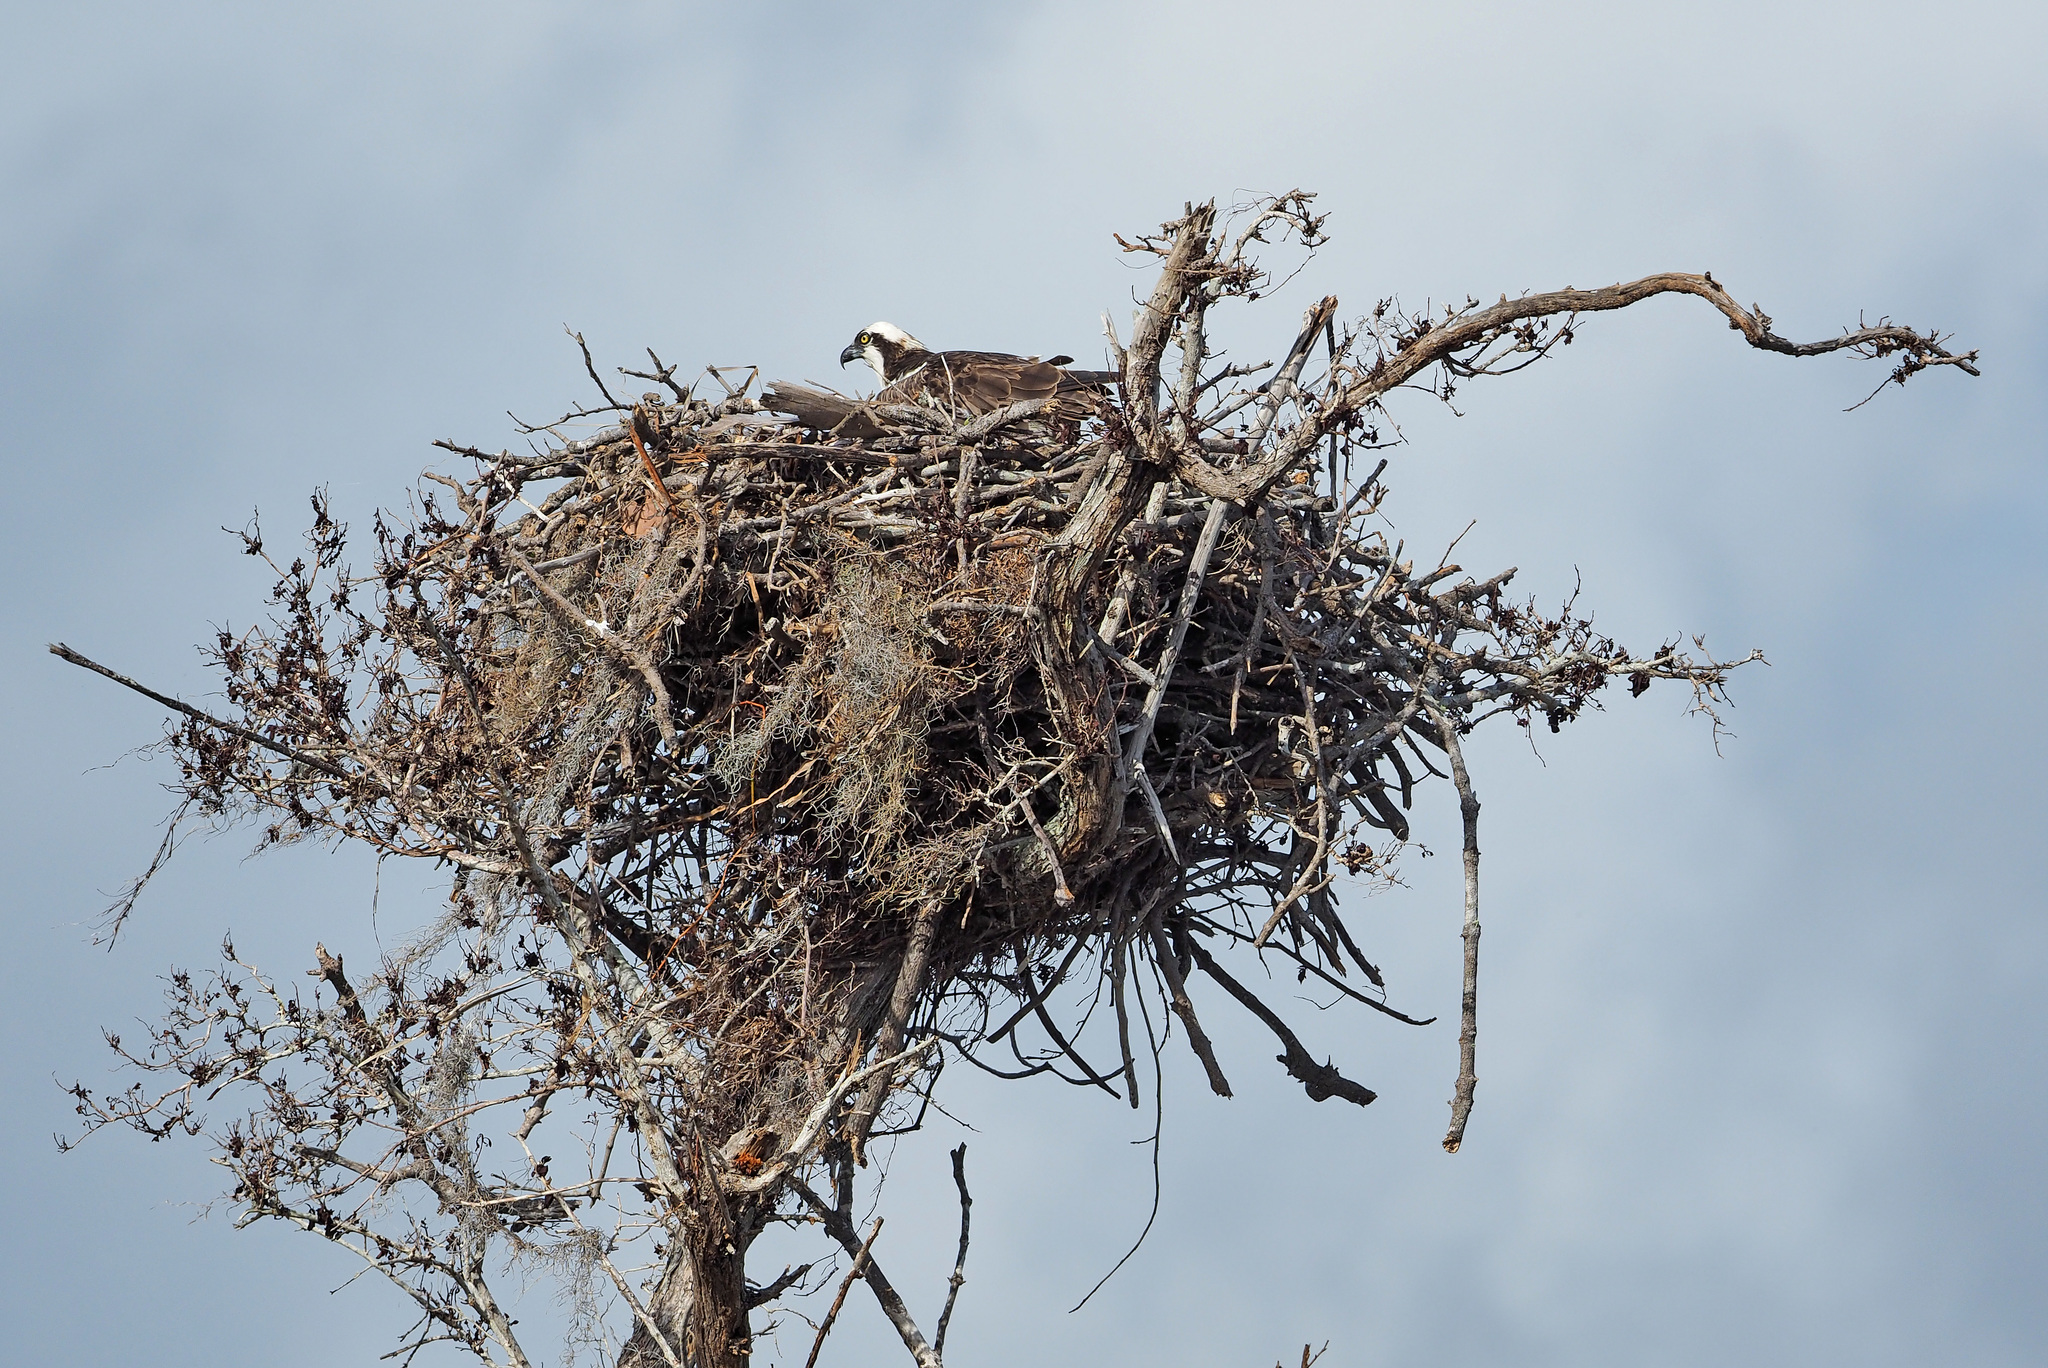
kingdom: Animalia
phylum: Chordata
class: Aves
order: Accipitriformes
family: Pandionidae
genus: Pandion
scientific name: Pandion haliaetus
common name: Osprey
